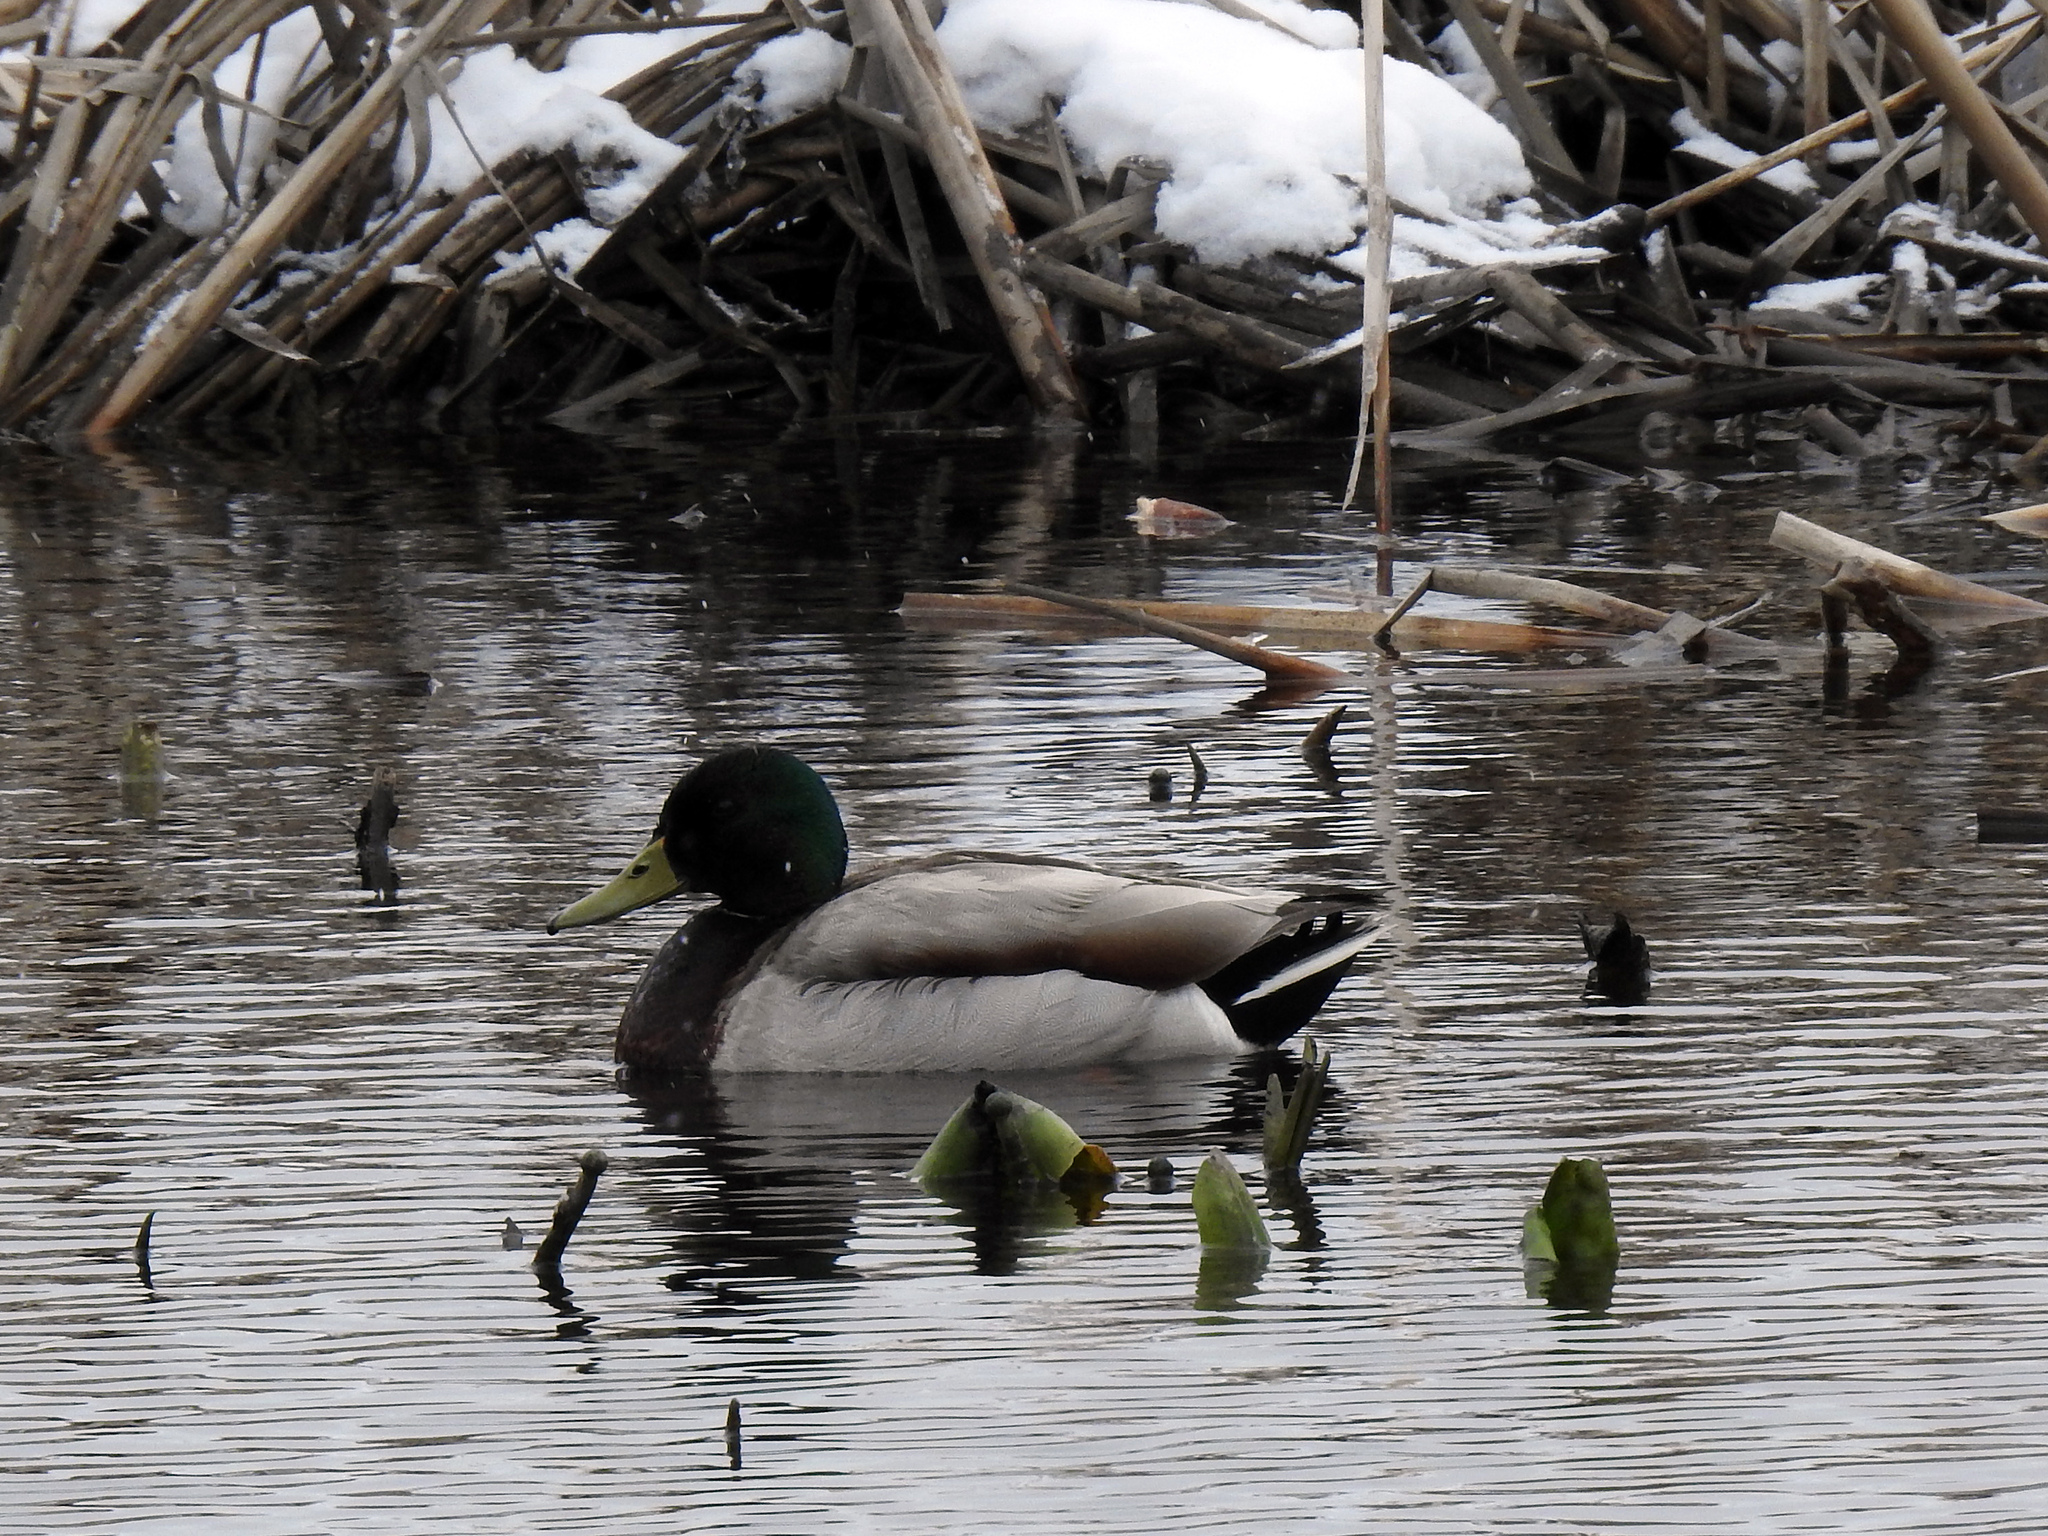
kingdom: Animalia
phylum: Chordata
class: Aves
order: Anseriformes
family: Anatidae
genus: Anas
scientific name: Anas platyrhynchos
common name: Mallard
